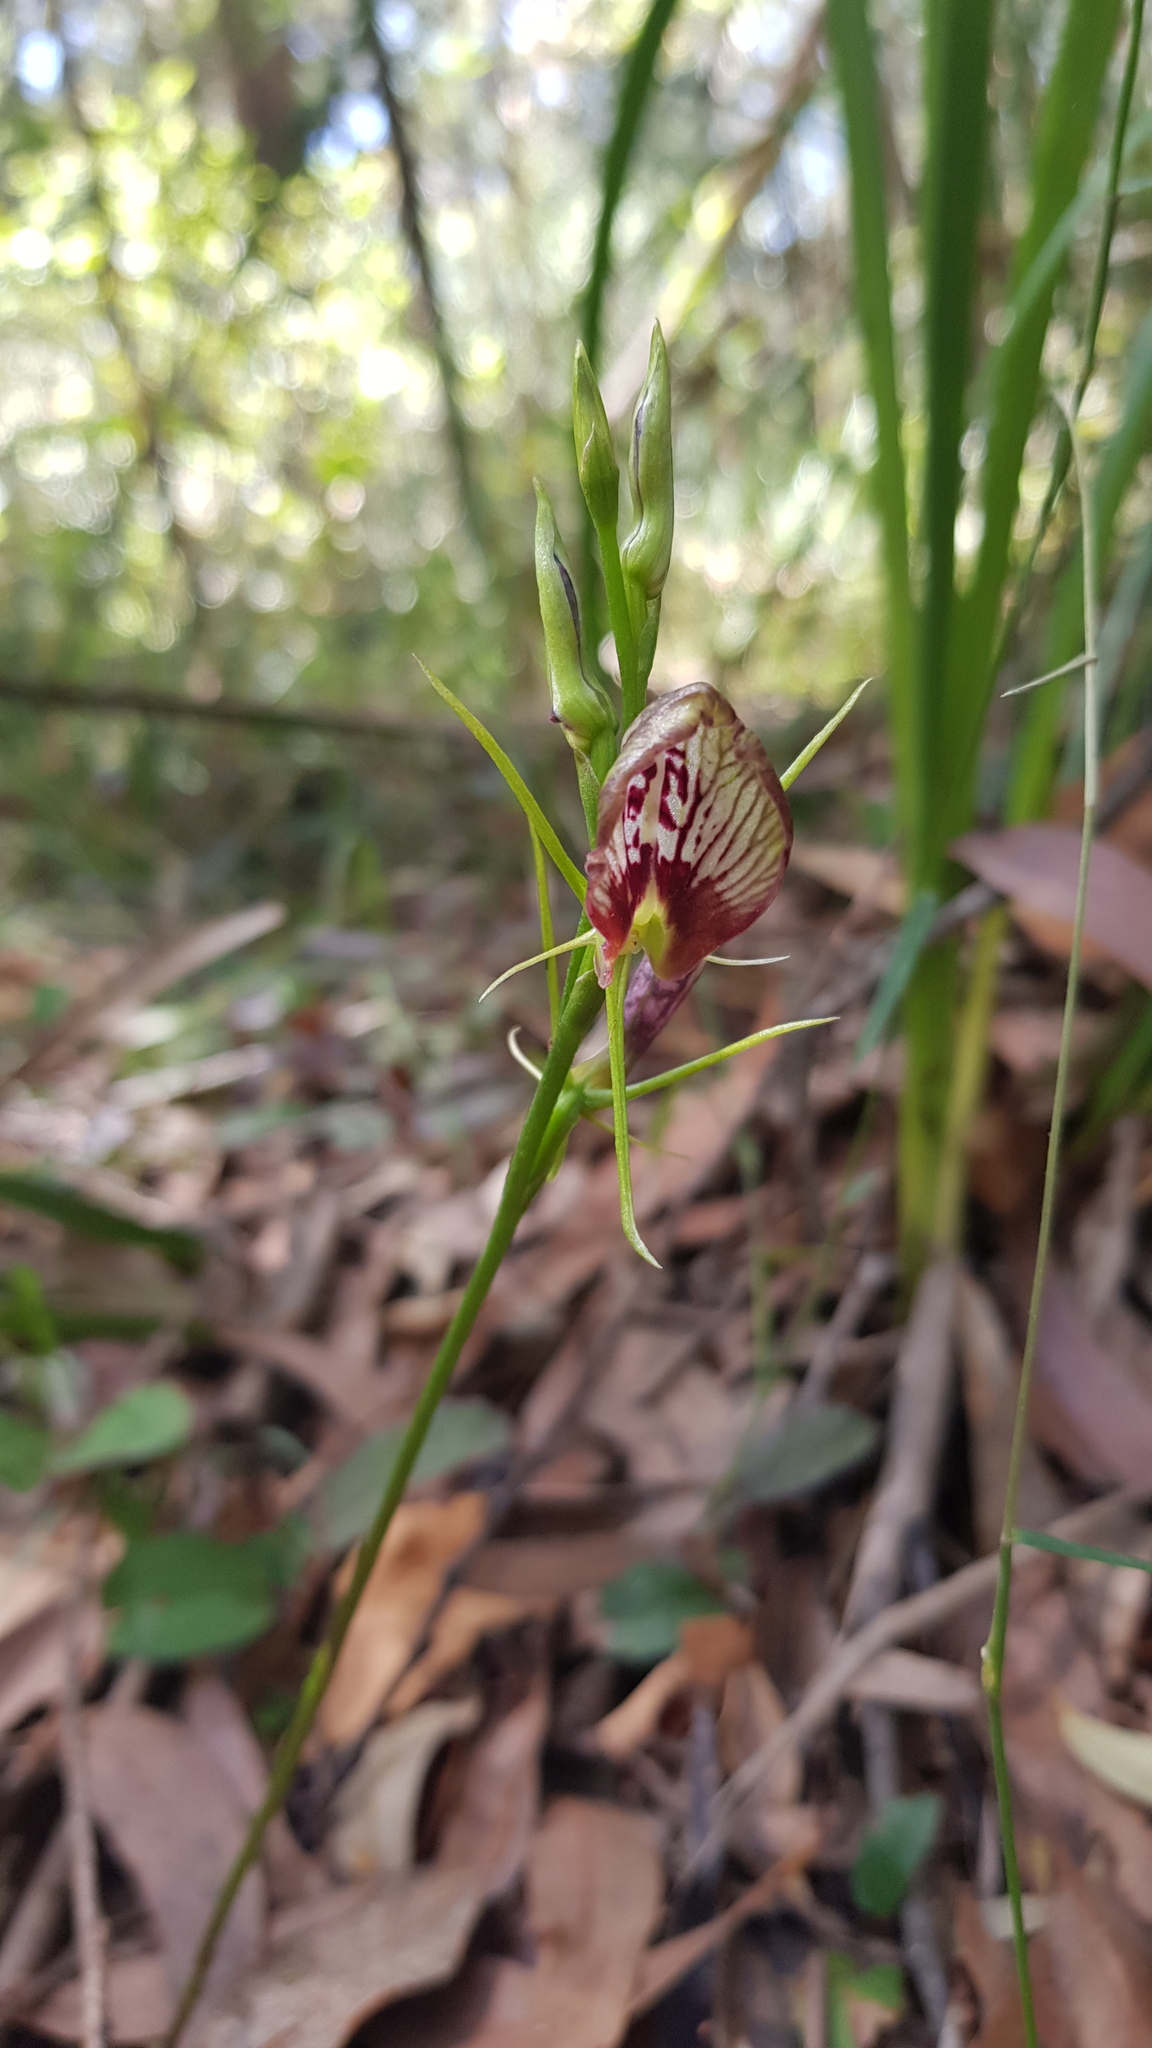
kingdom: Plantae
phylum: Tracheophyta
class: Liliopsida
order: Asparagales
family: Orchidaceae
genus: Cryptostylis
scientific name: Cryptostylis erecta
